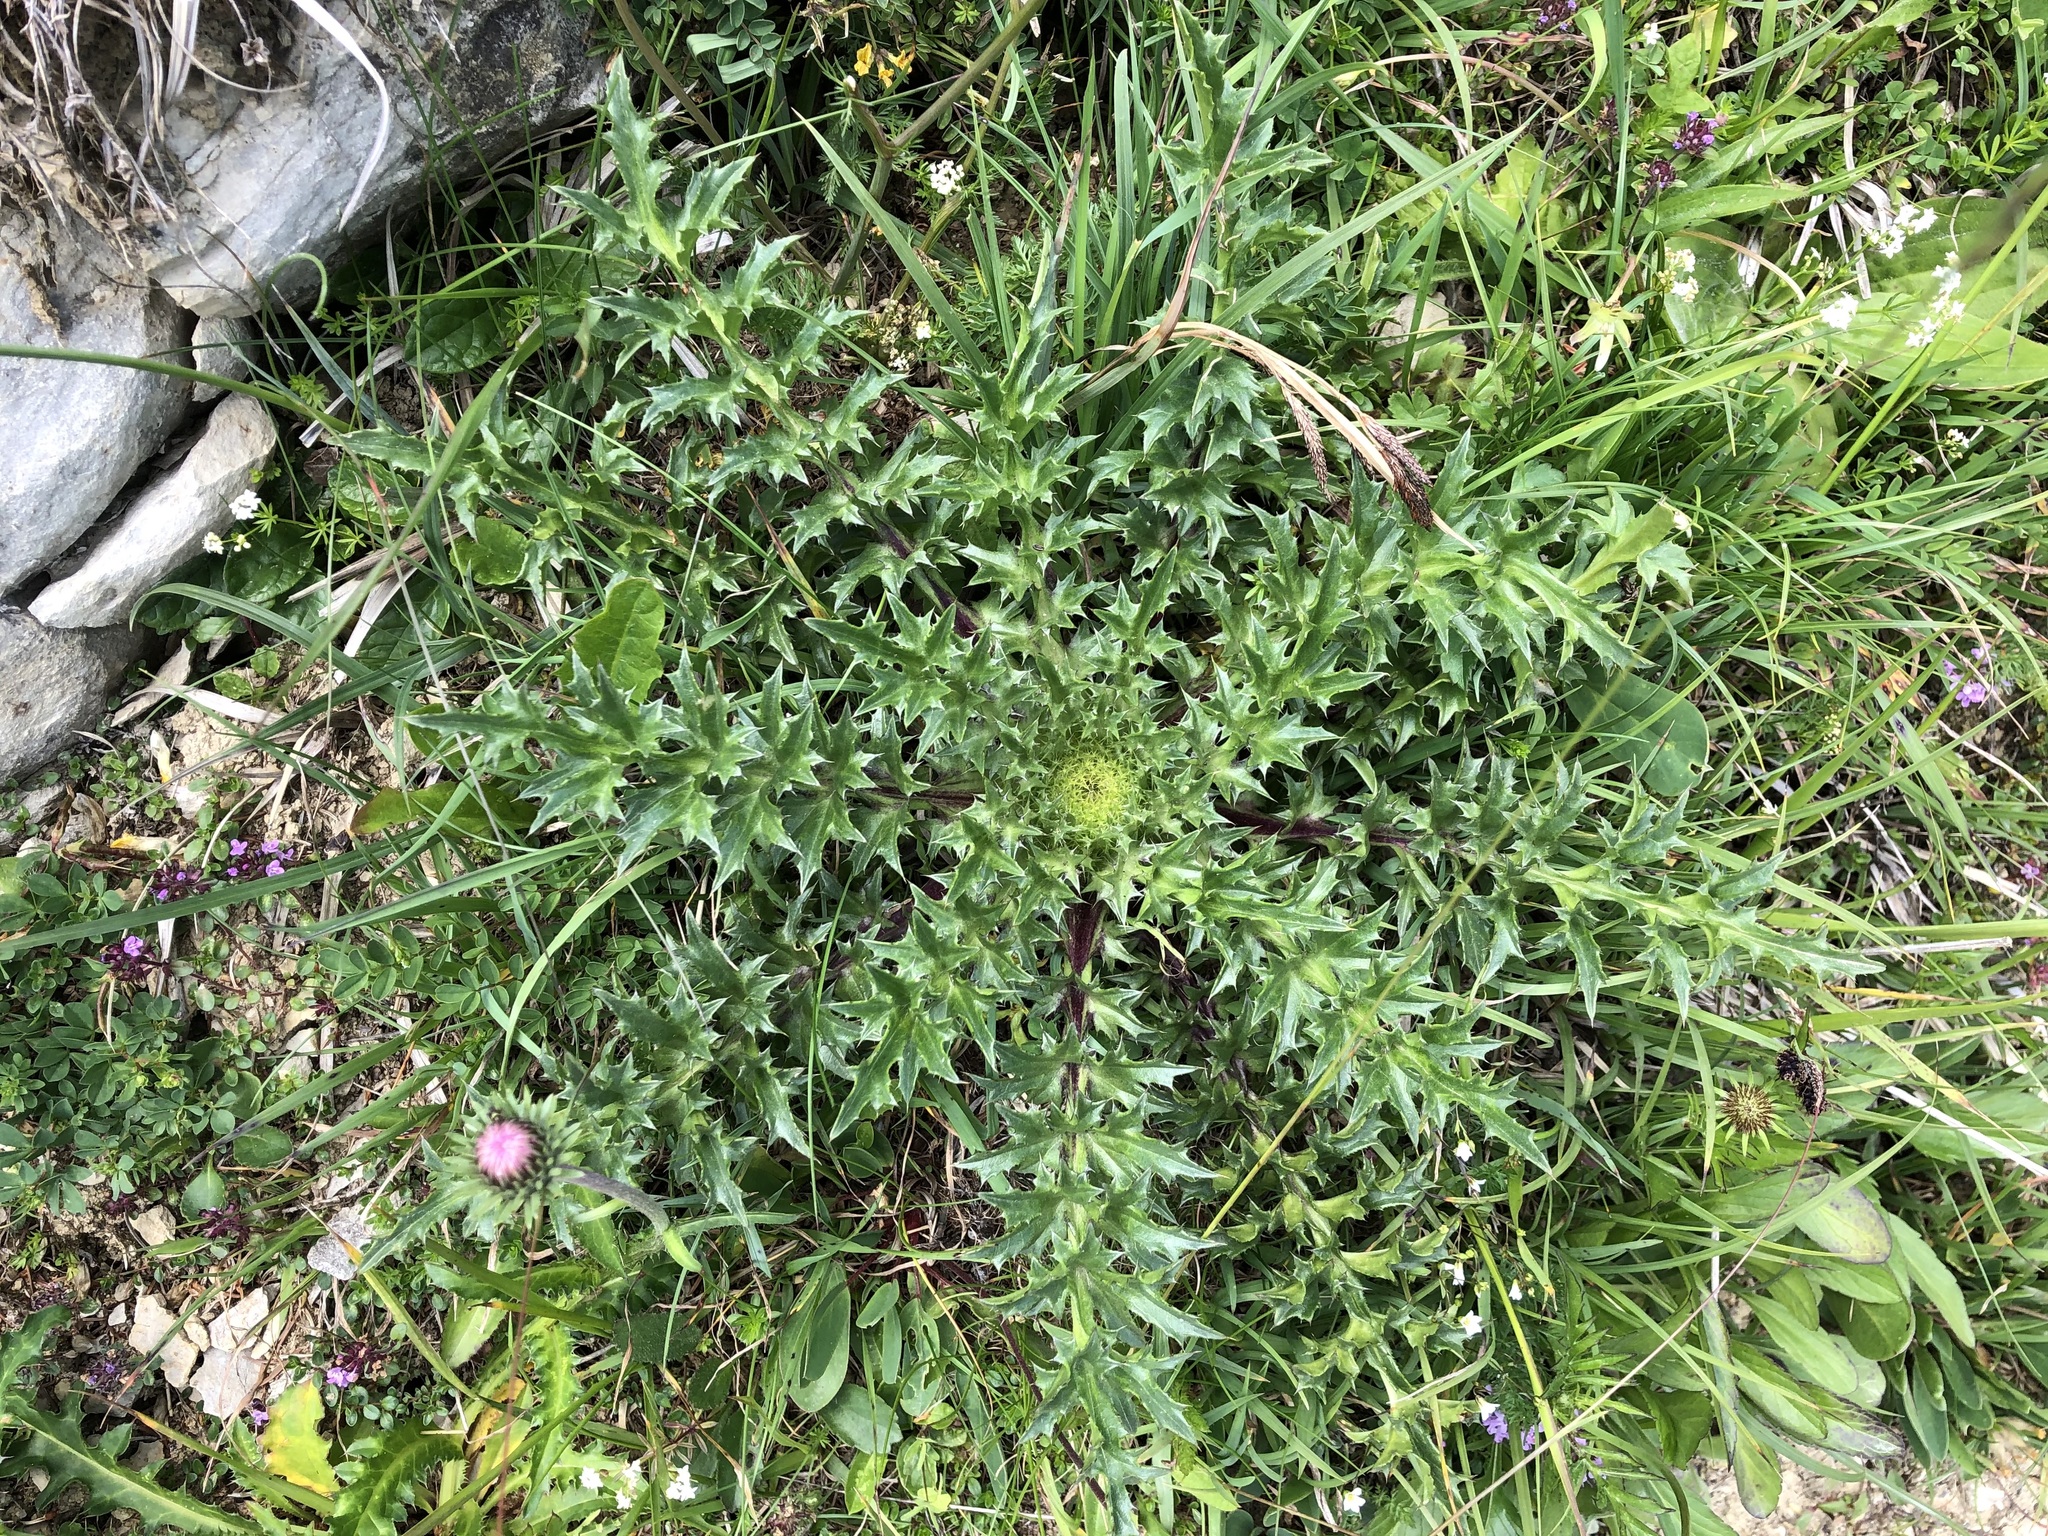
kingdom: Plantae
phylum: Tracheophyta
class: Magnoliopsida
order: Asterales
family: Asteraceae
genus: Cirsium
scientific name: Cirsium acaulon
